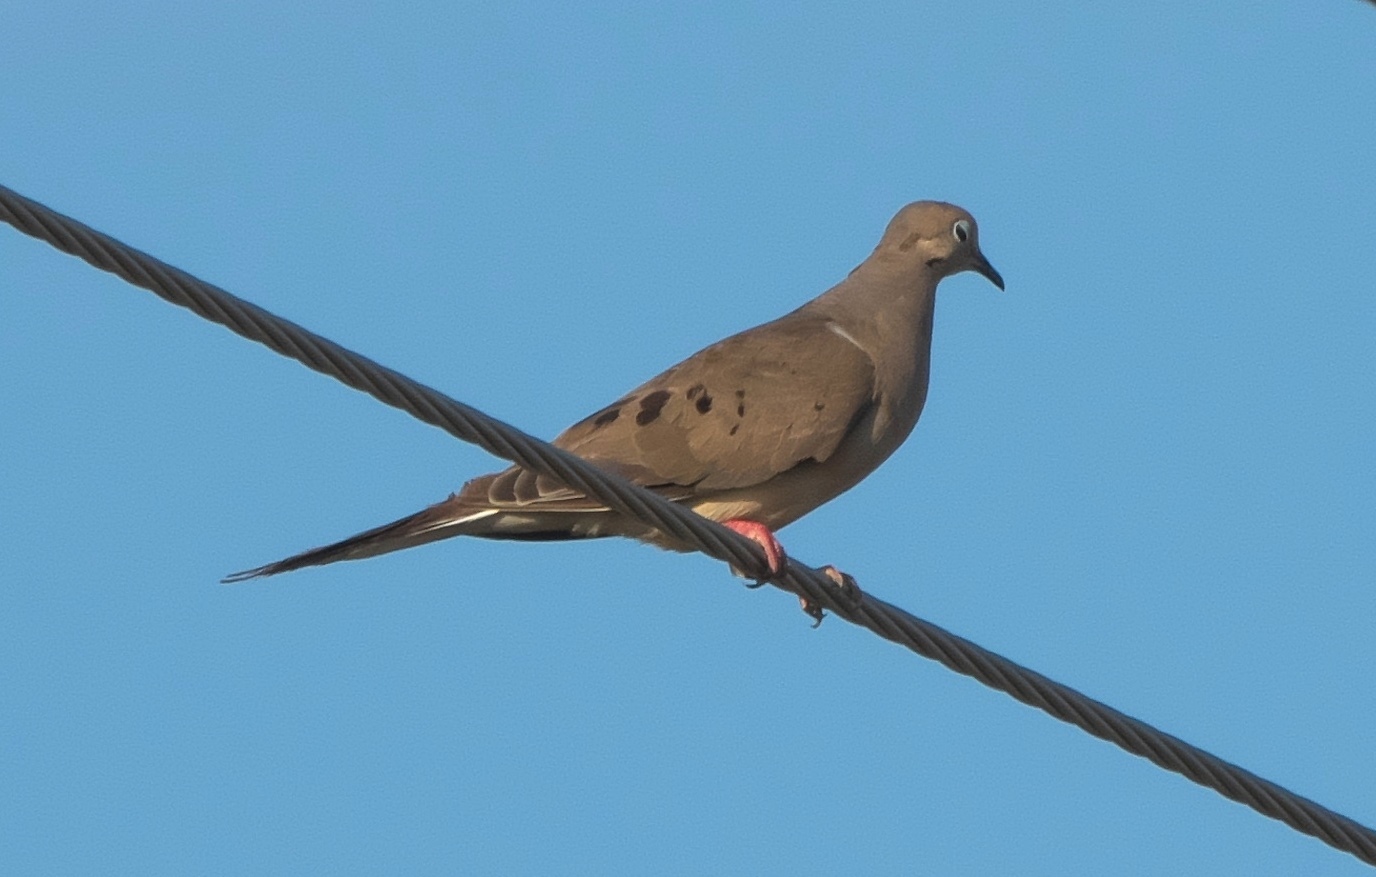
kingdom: Animalia
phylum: Chordata
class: Aves
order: Columbiformes
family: Columbidae
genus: Zenaida
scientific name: Zenaida macroura
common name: Mourning dove
